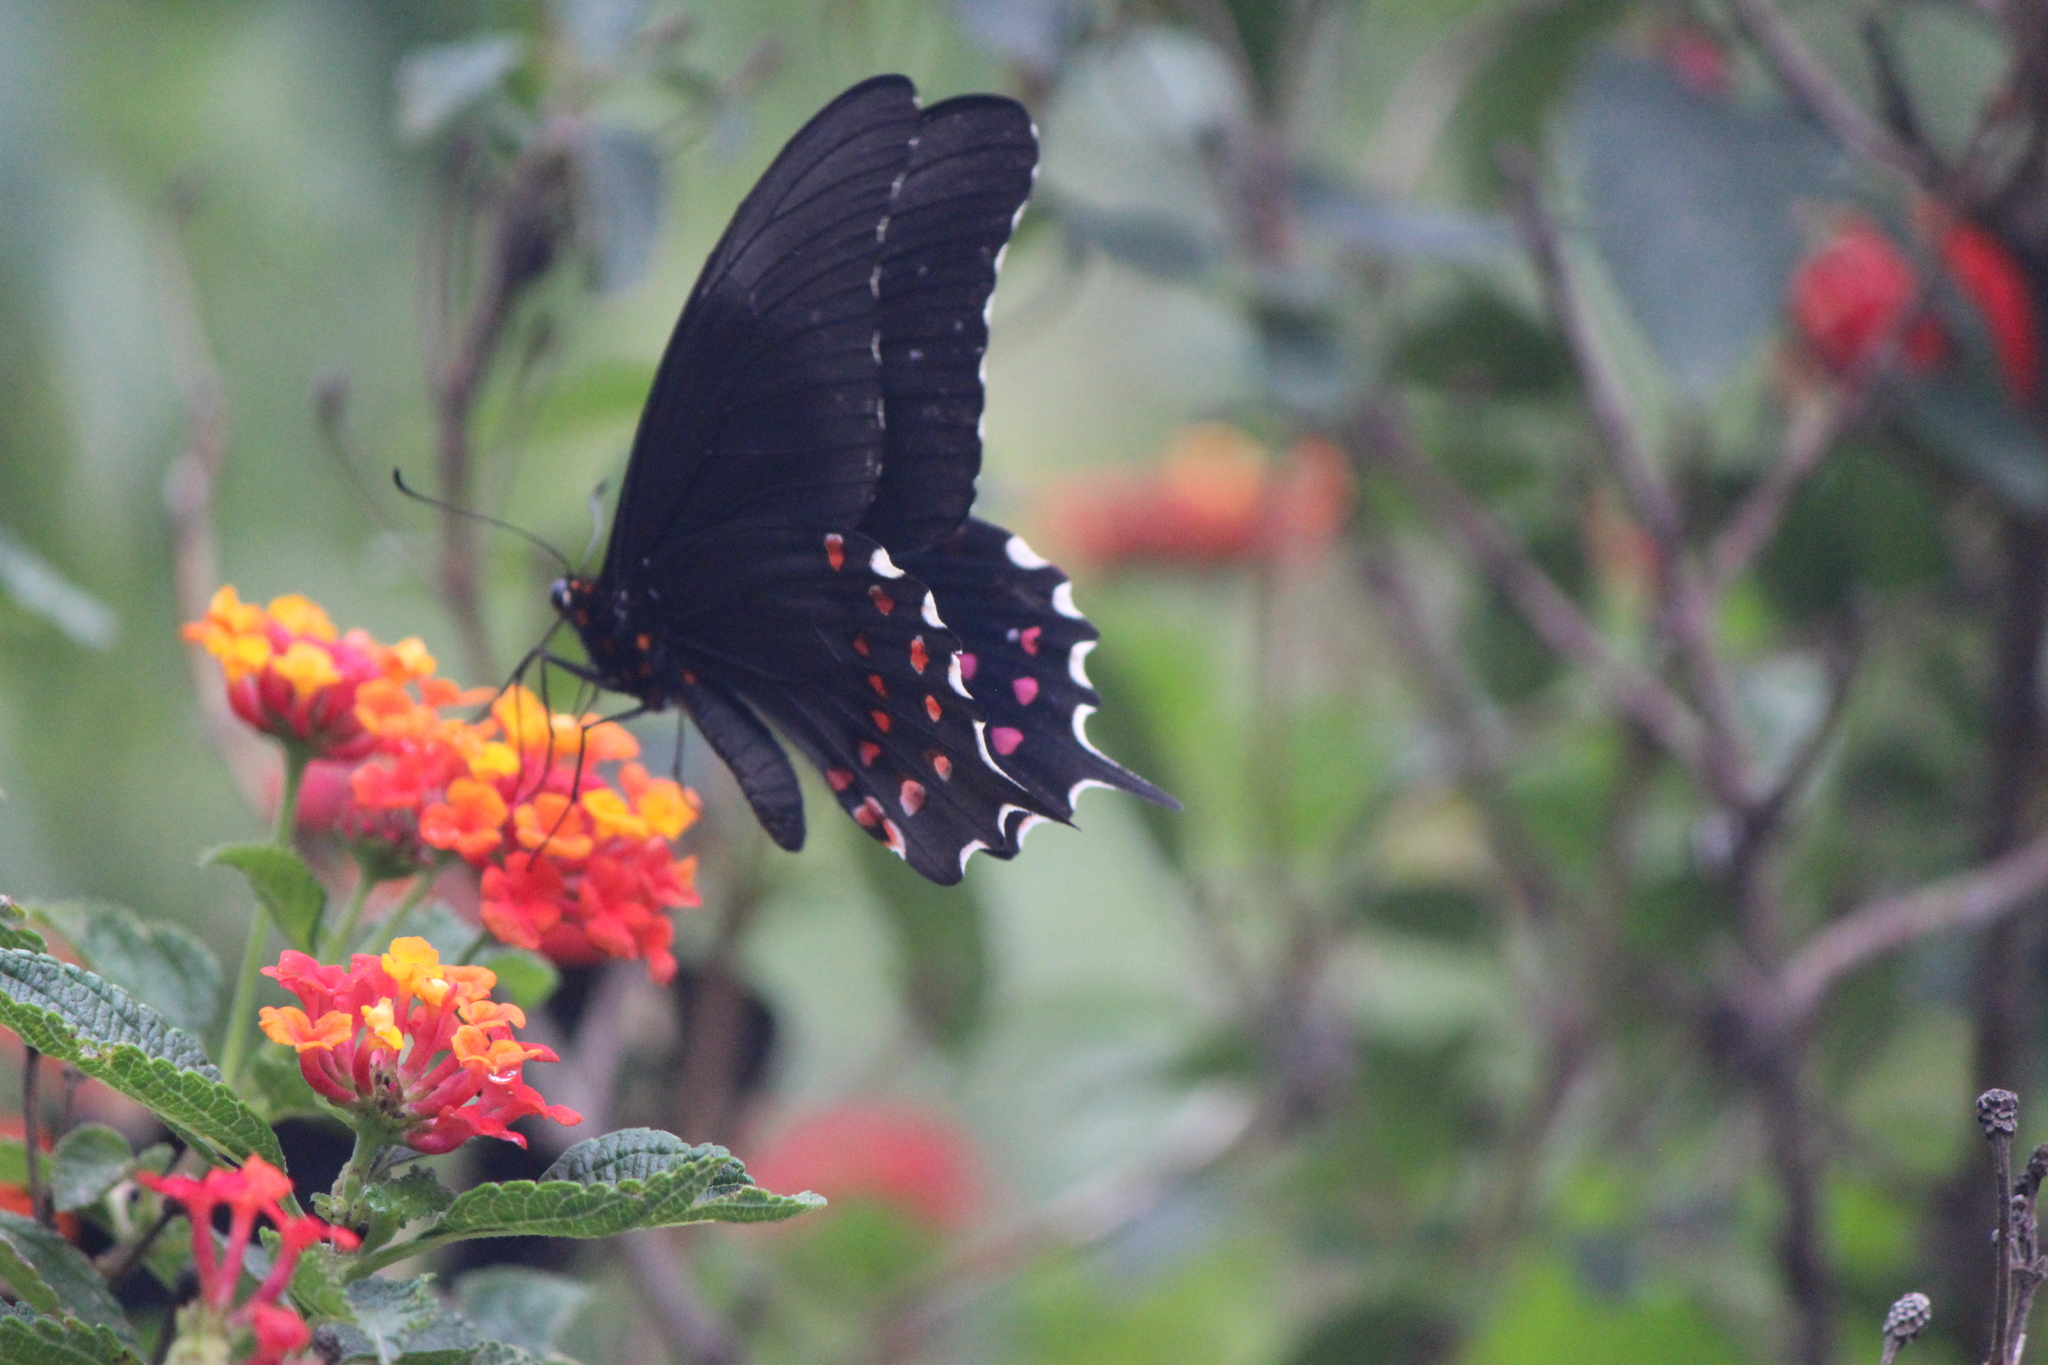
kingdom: Animalia
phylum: Arthropoda
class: Insecta
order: Lepidoptera
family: Papilionidae
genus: Heraclides
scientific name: Heraclides rogeri
